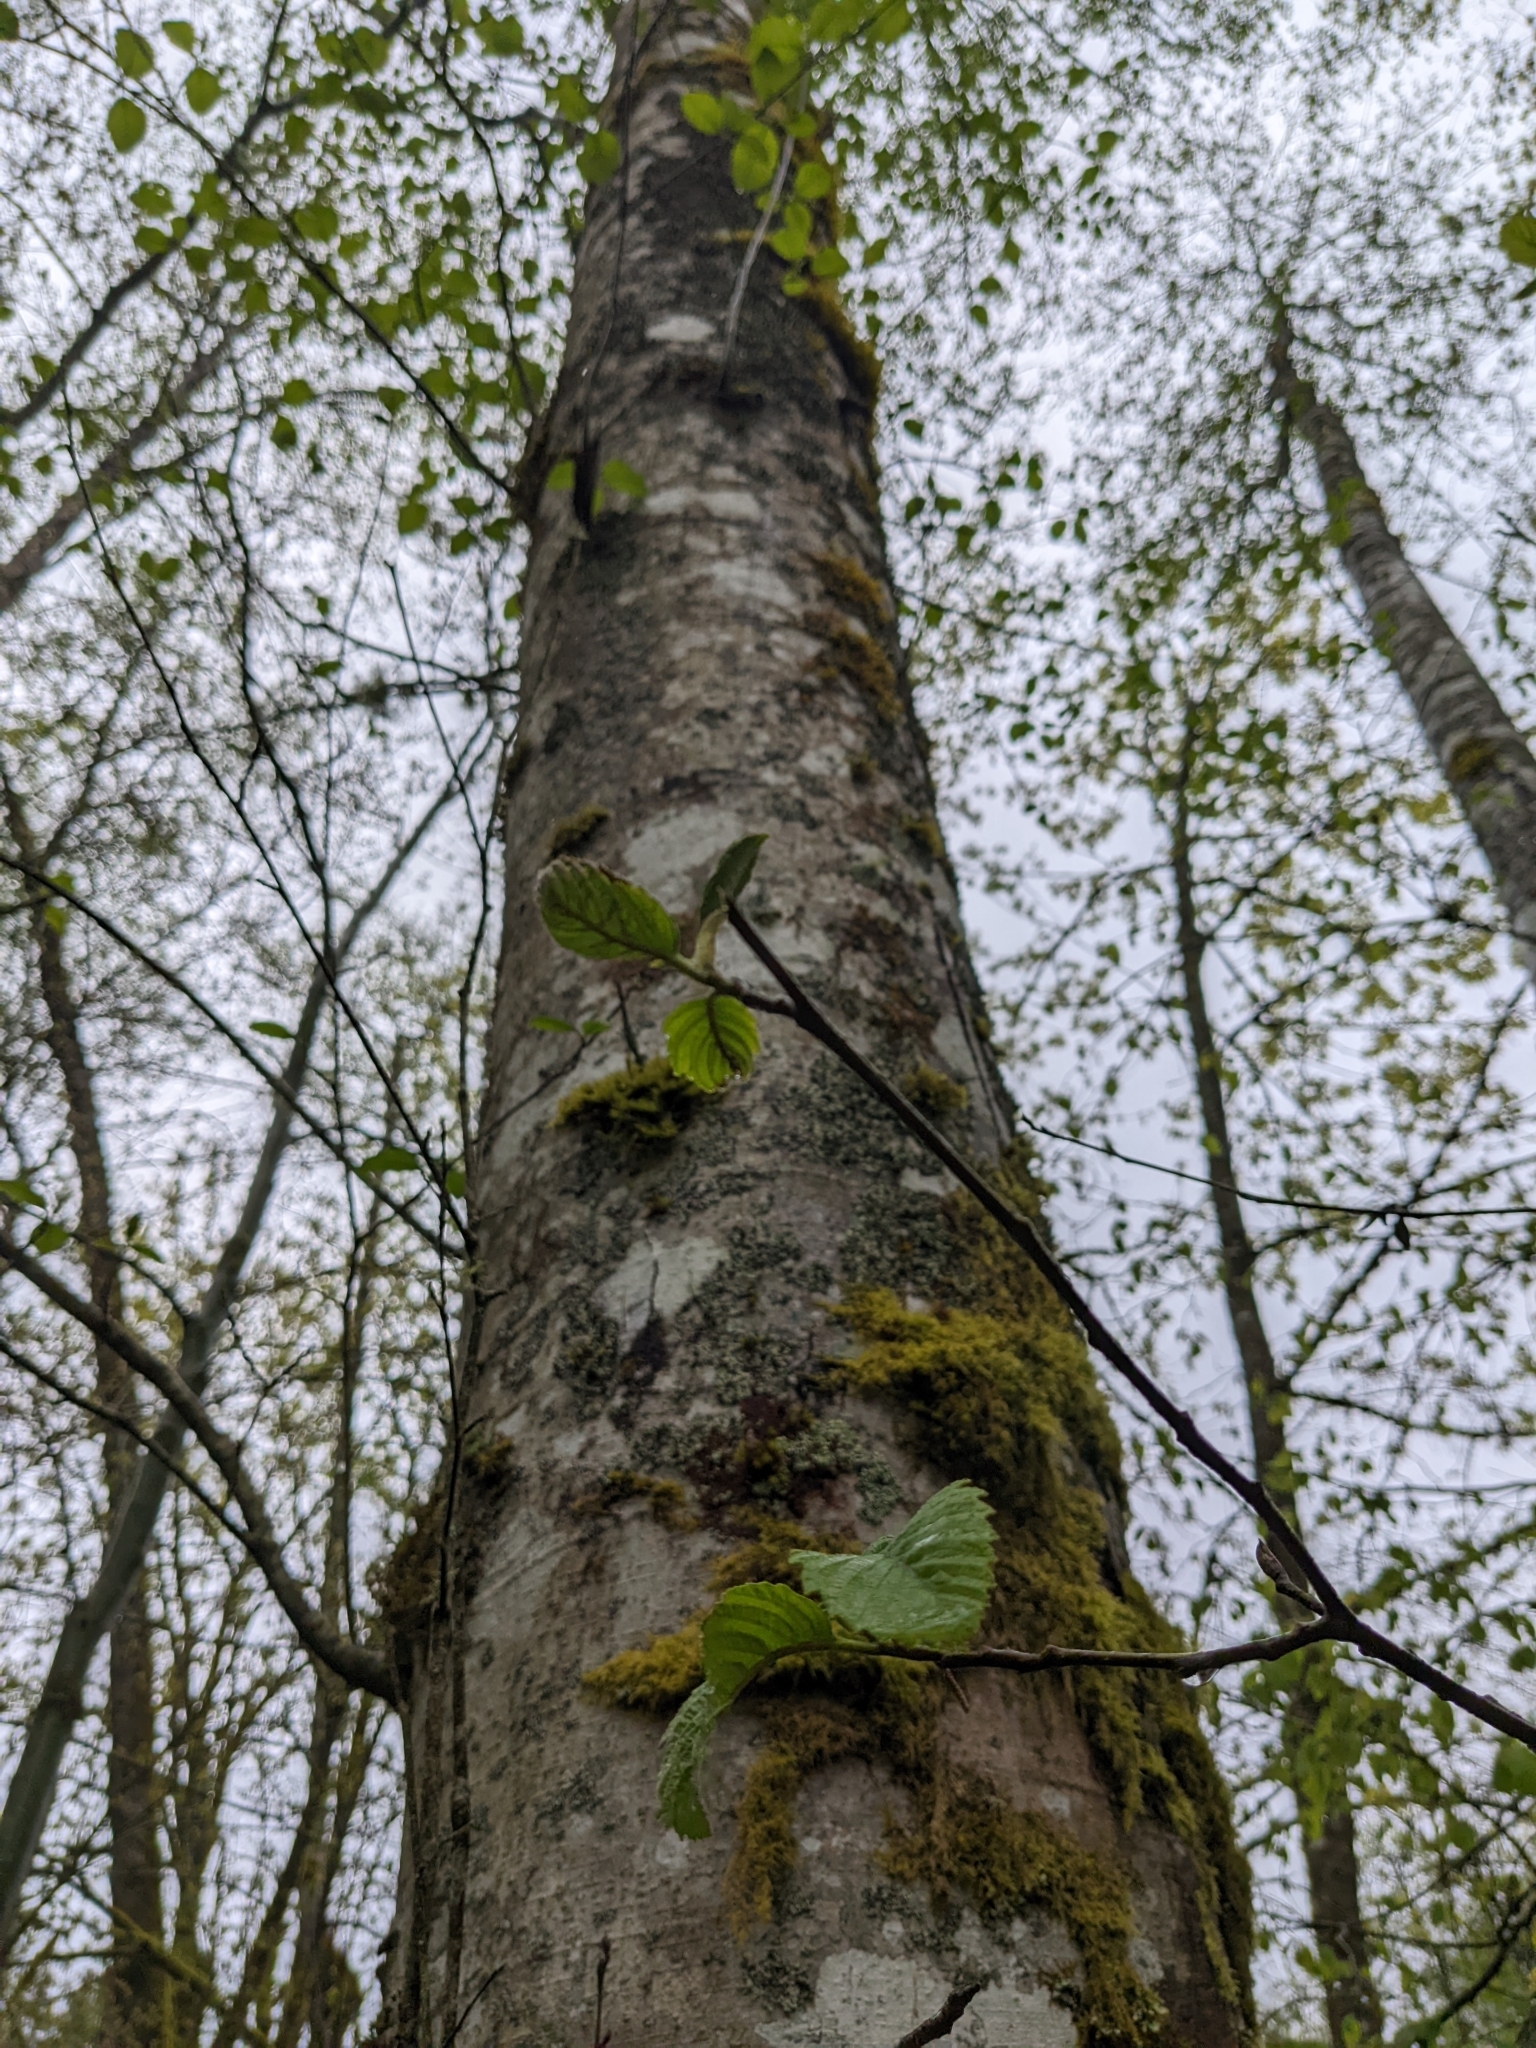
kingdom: Plantae
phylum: Tracheophyta
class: Magnoliopsida
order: Fagales
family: Betulaceae
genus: Alnus
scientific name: Alnus rubra
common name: Red alder
